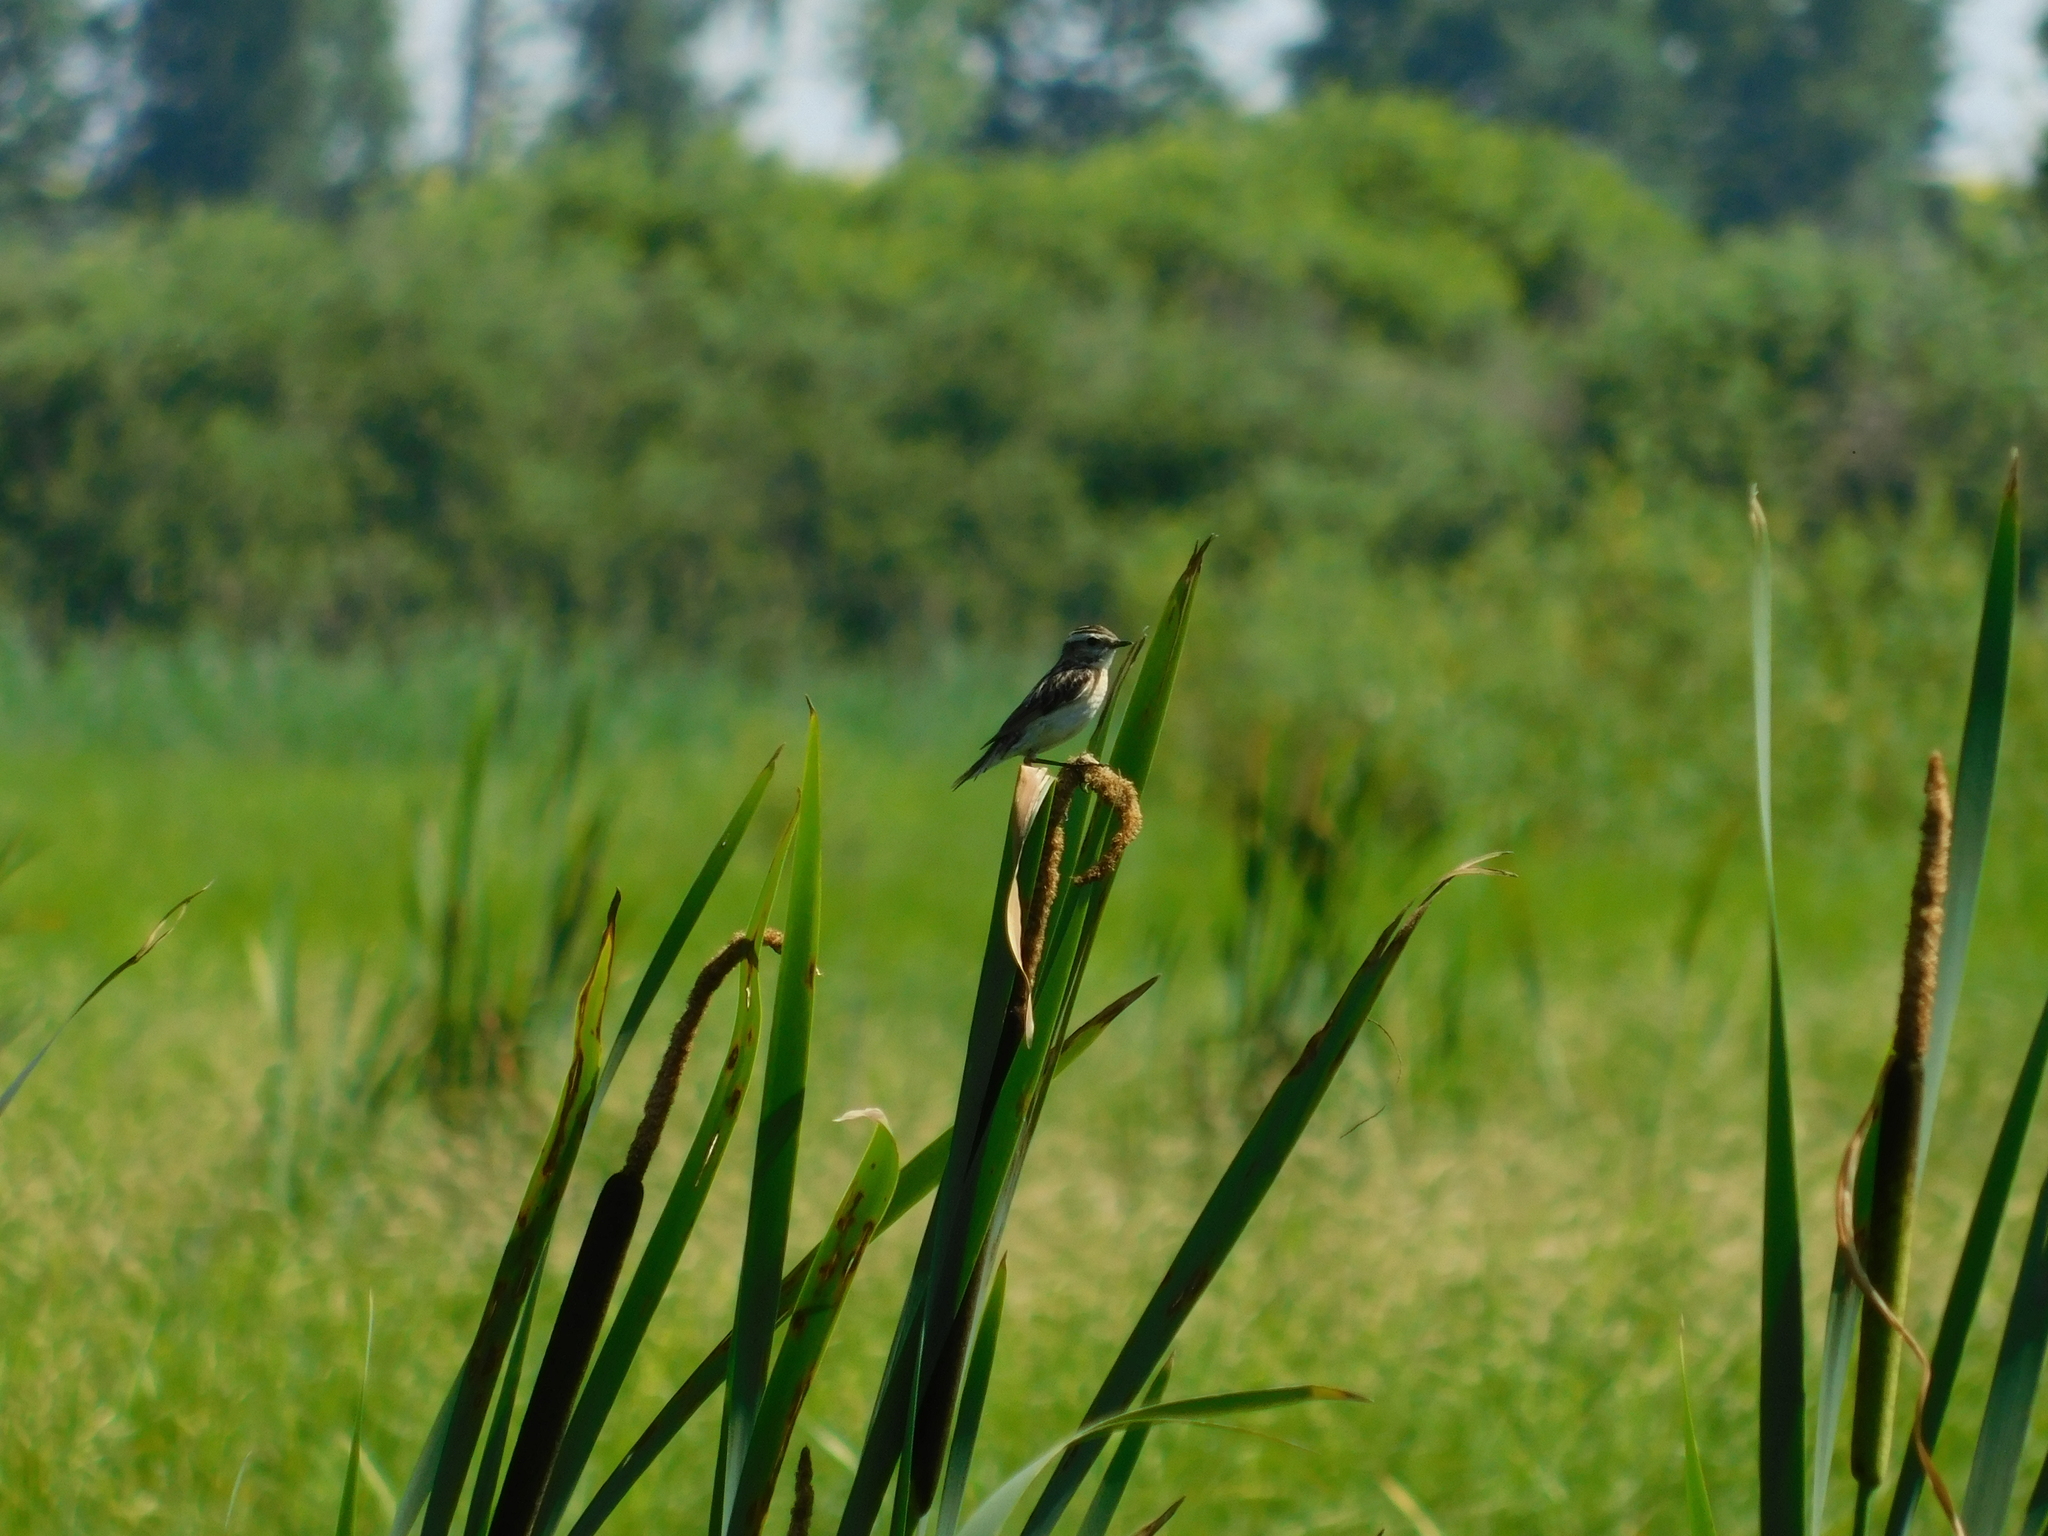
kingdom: Animalia
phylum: Chordata
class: Aves
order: Passeriformes
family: Muscicapidae
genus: Saxicola
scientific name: Saxicola rubetra
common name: Whinchat
